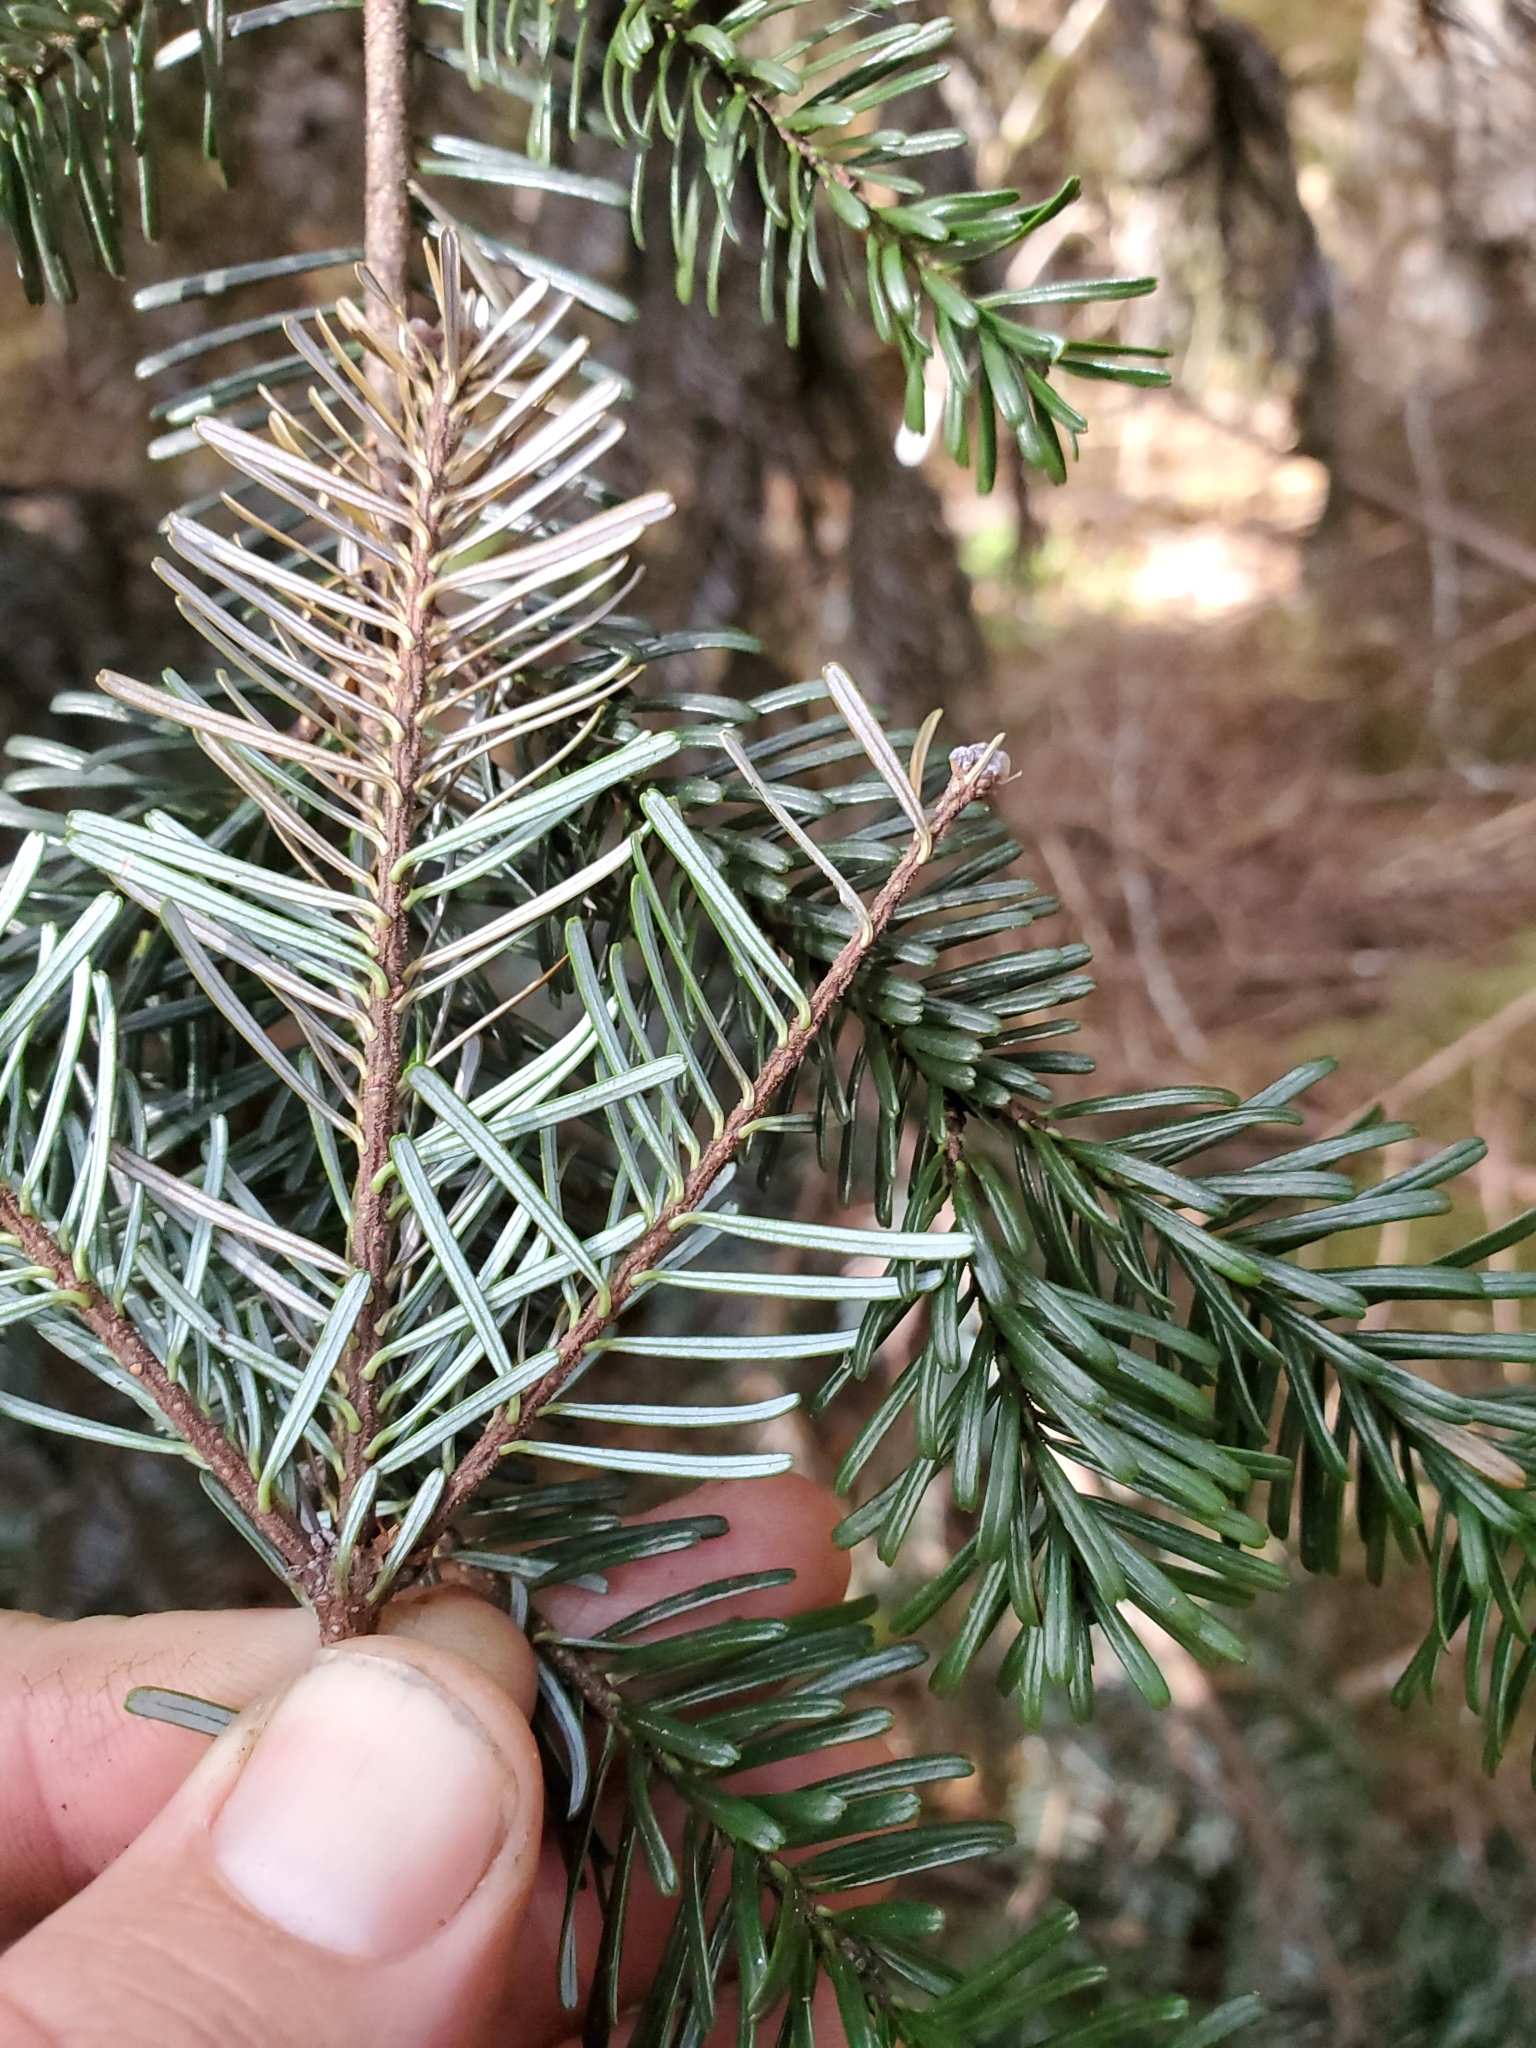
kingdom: Plantae
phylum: Tracheophyta
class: Pinopsida
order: Pinales
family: Pinaceae
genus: Abies
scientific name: Abies amabilis
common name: Pacific silver fir
